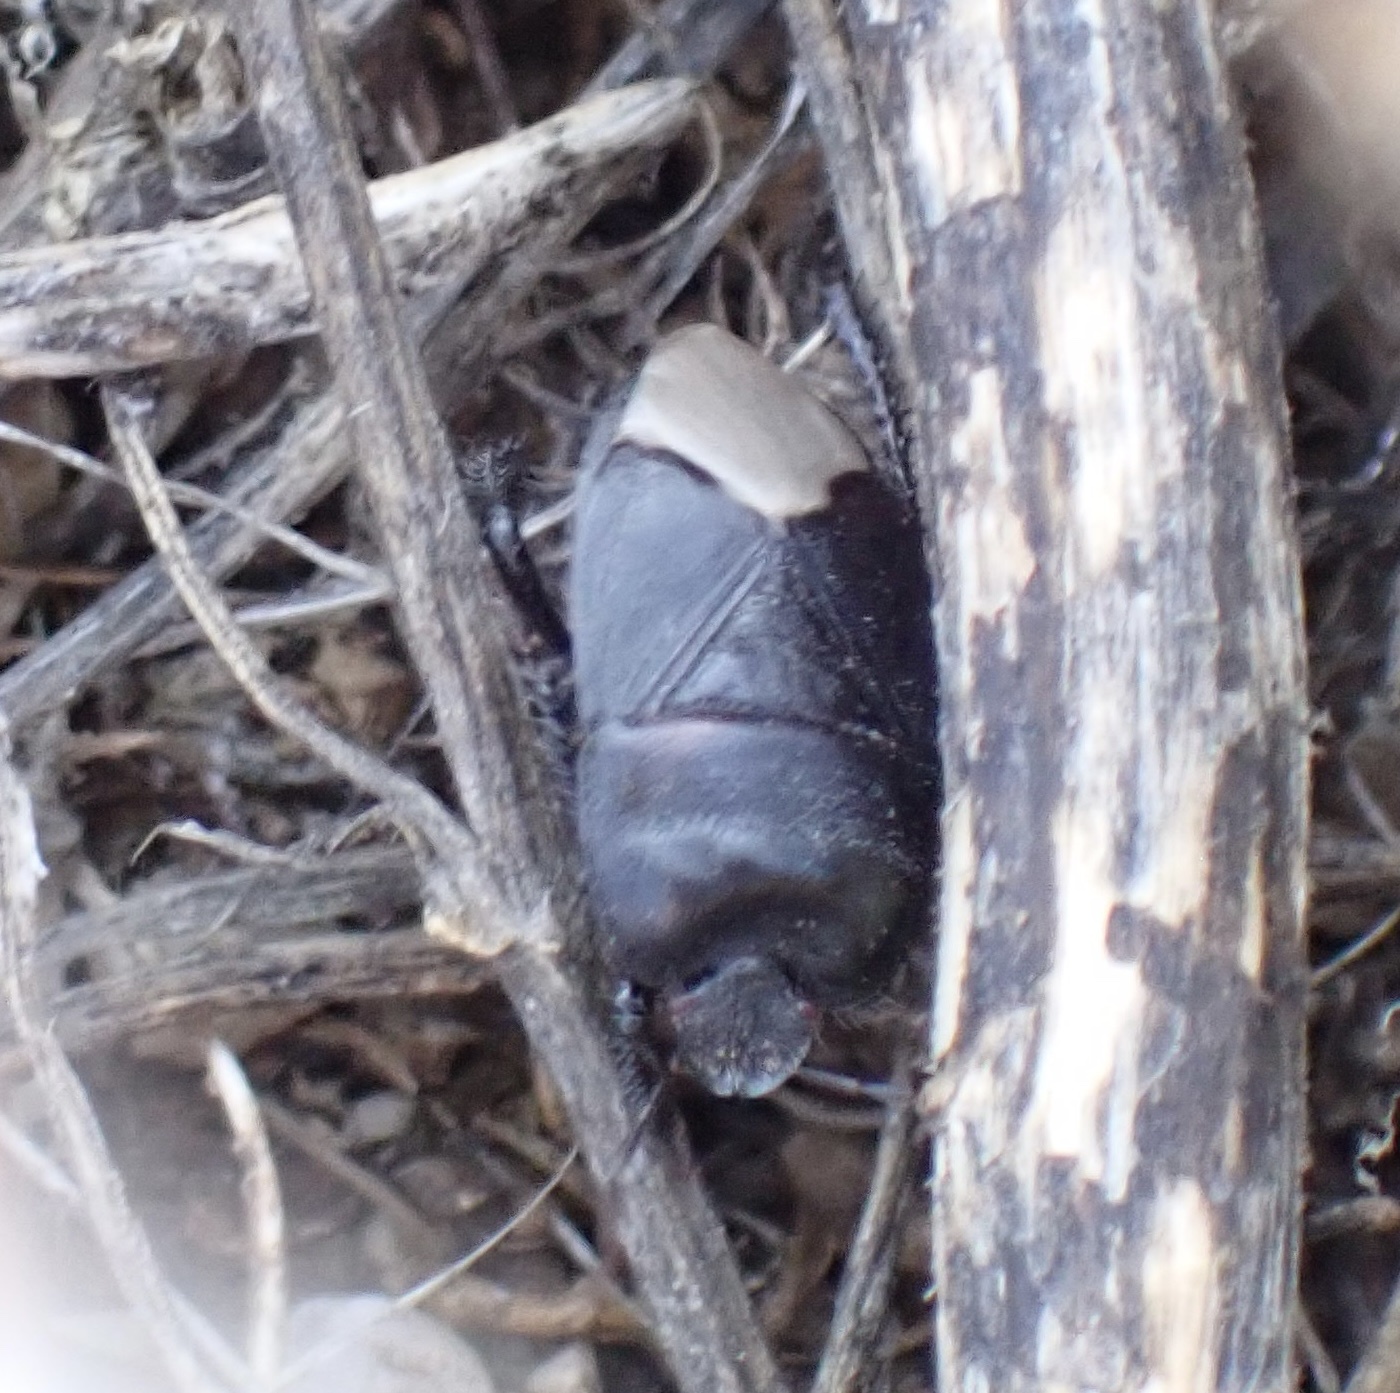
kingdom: Animalia
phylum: Arthropoda
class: Insecta
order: Hemiptera
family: Cydnidae
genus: Cydnus
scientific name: Cydnus aterrimus
